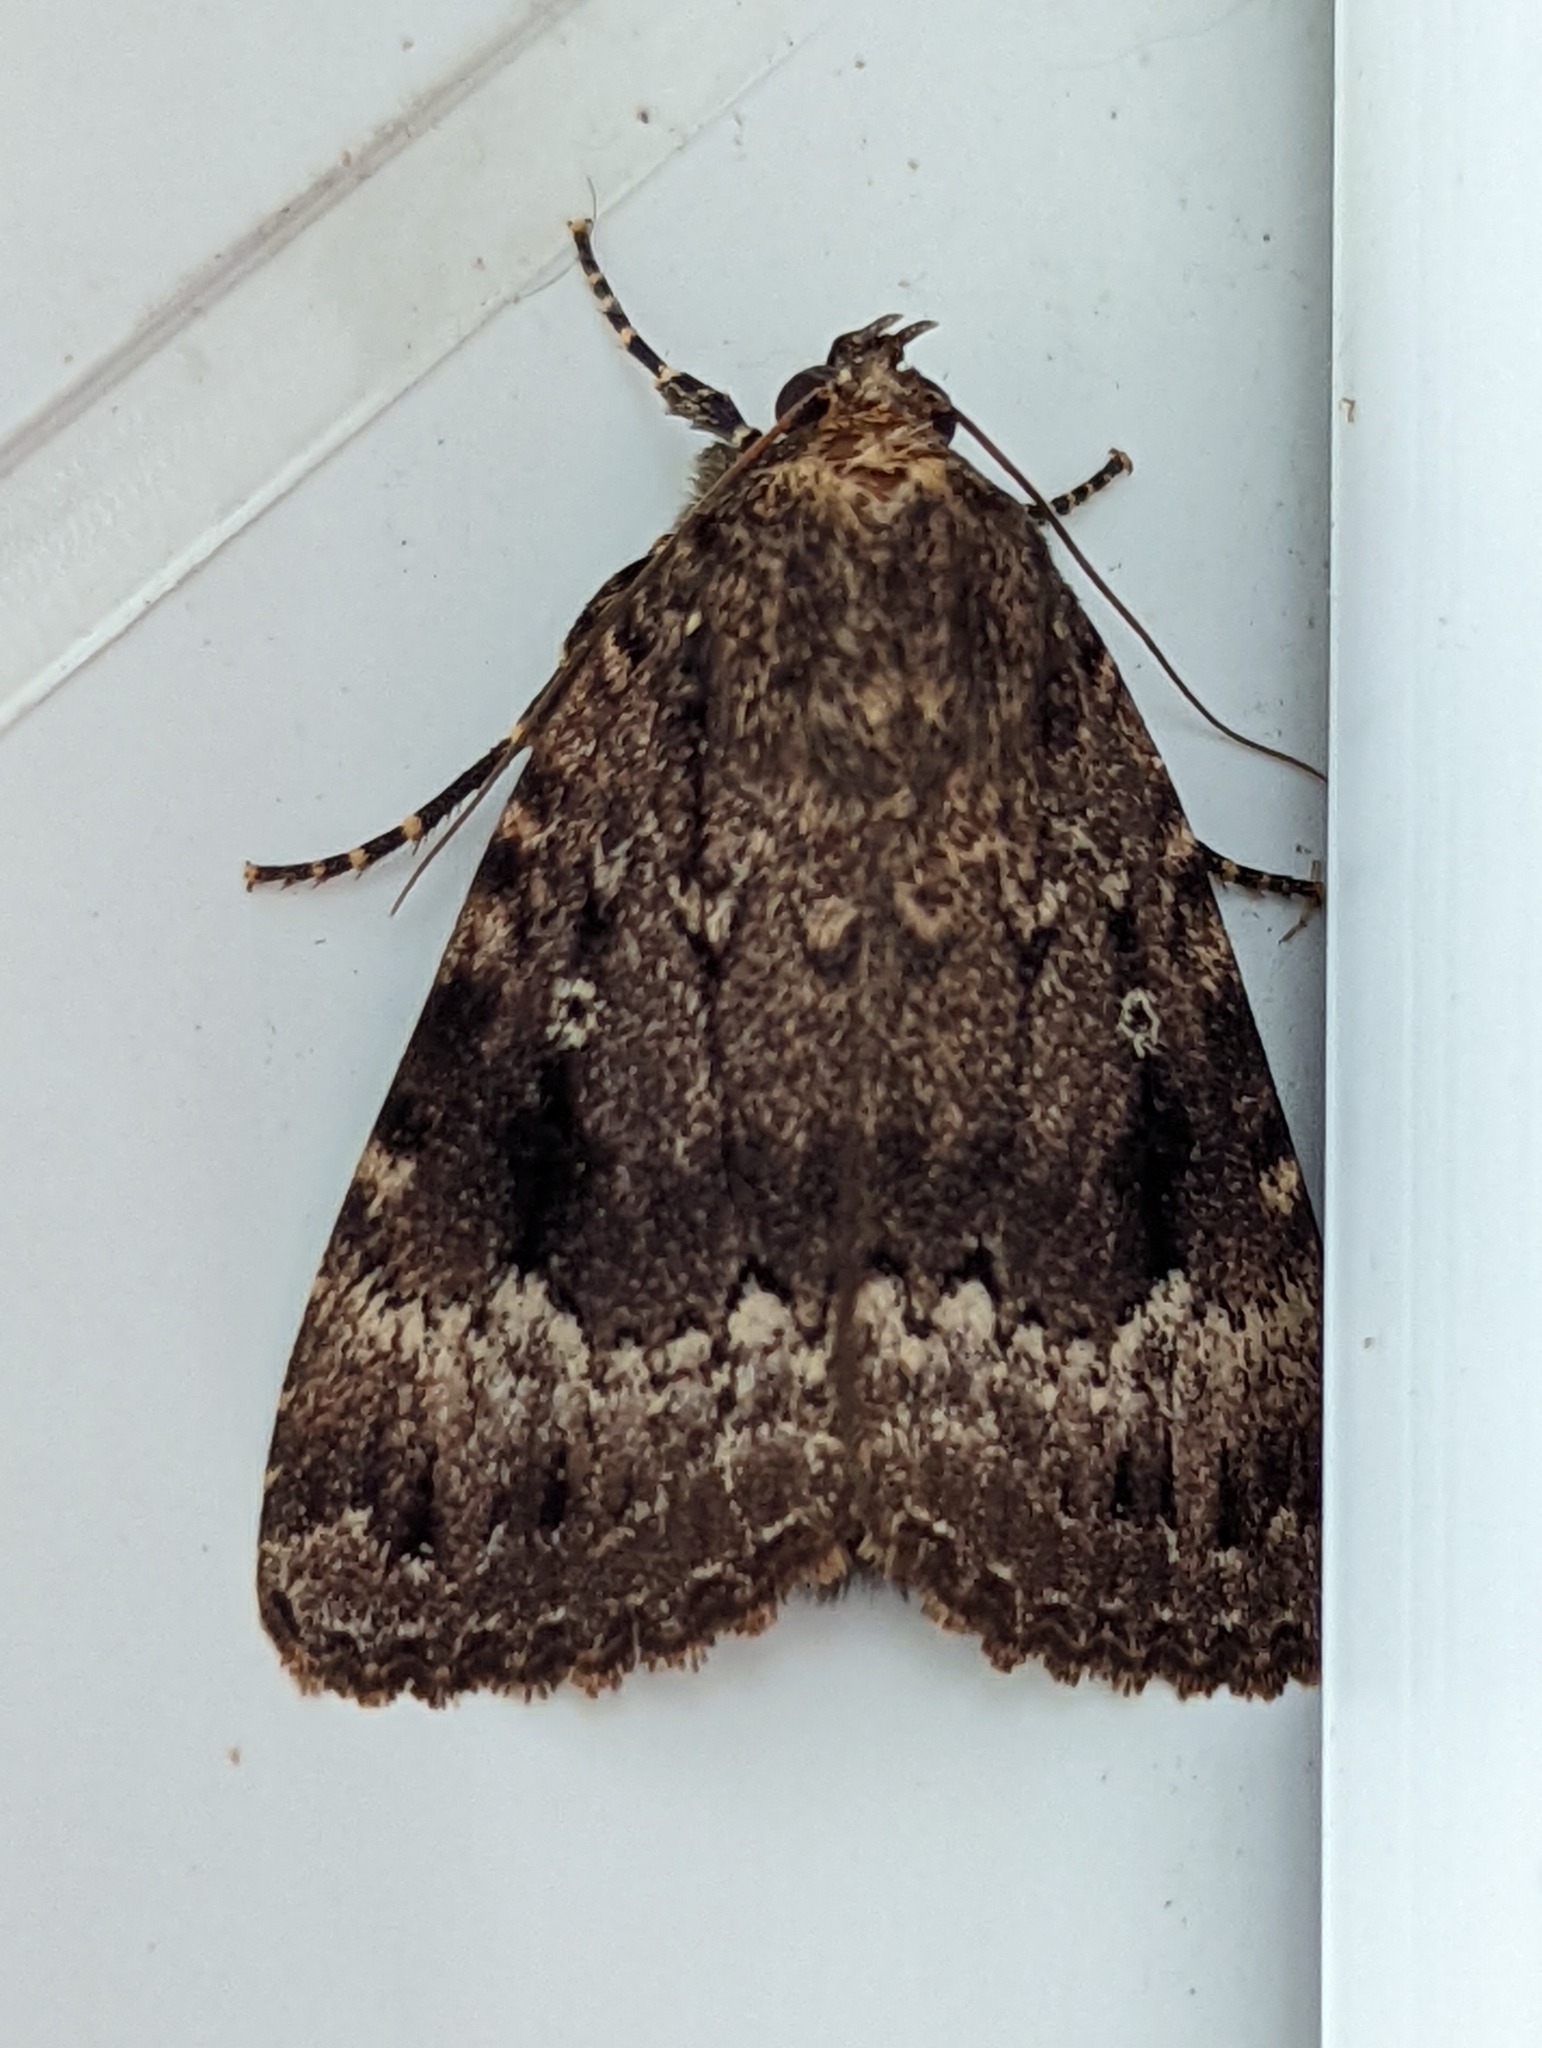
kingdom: Animalia
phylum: Arthropoda
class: Insecta
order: Lepidoptera
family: Noctuidae
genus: Amphipyra
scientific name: Amphipyra pyramidea
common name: Copper underwing
